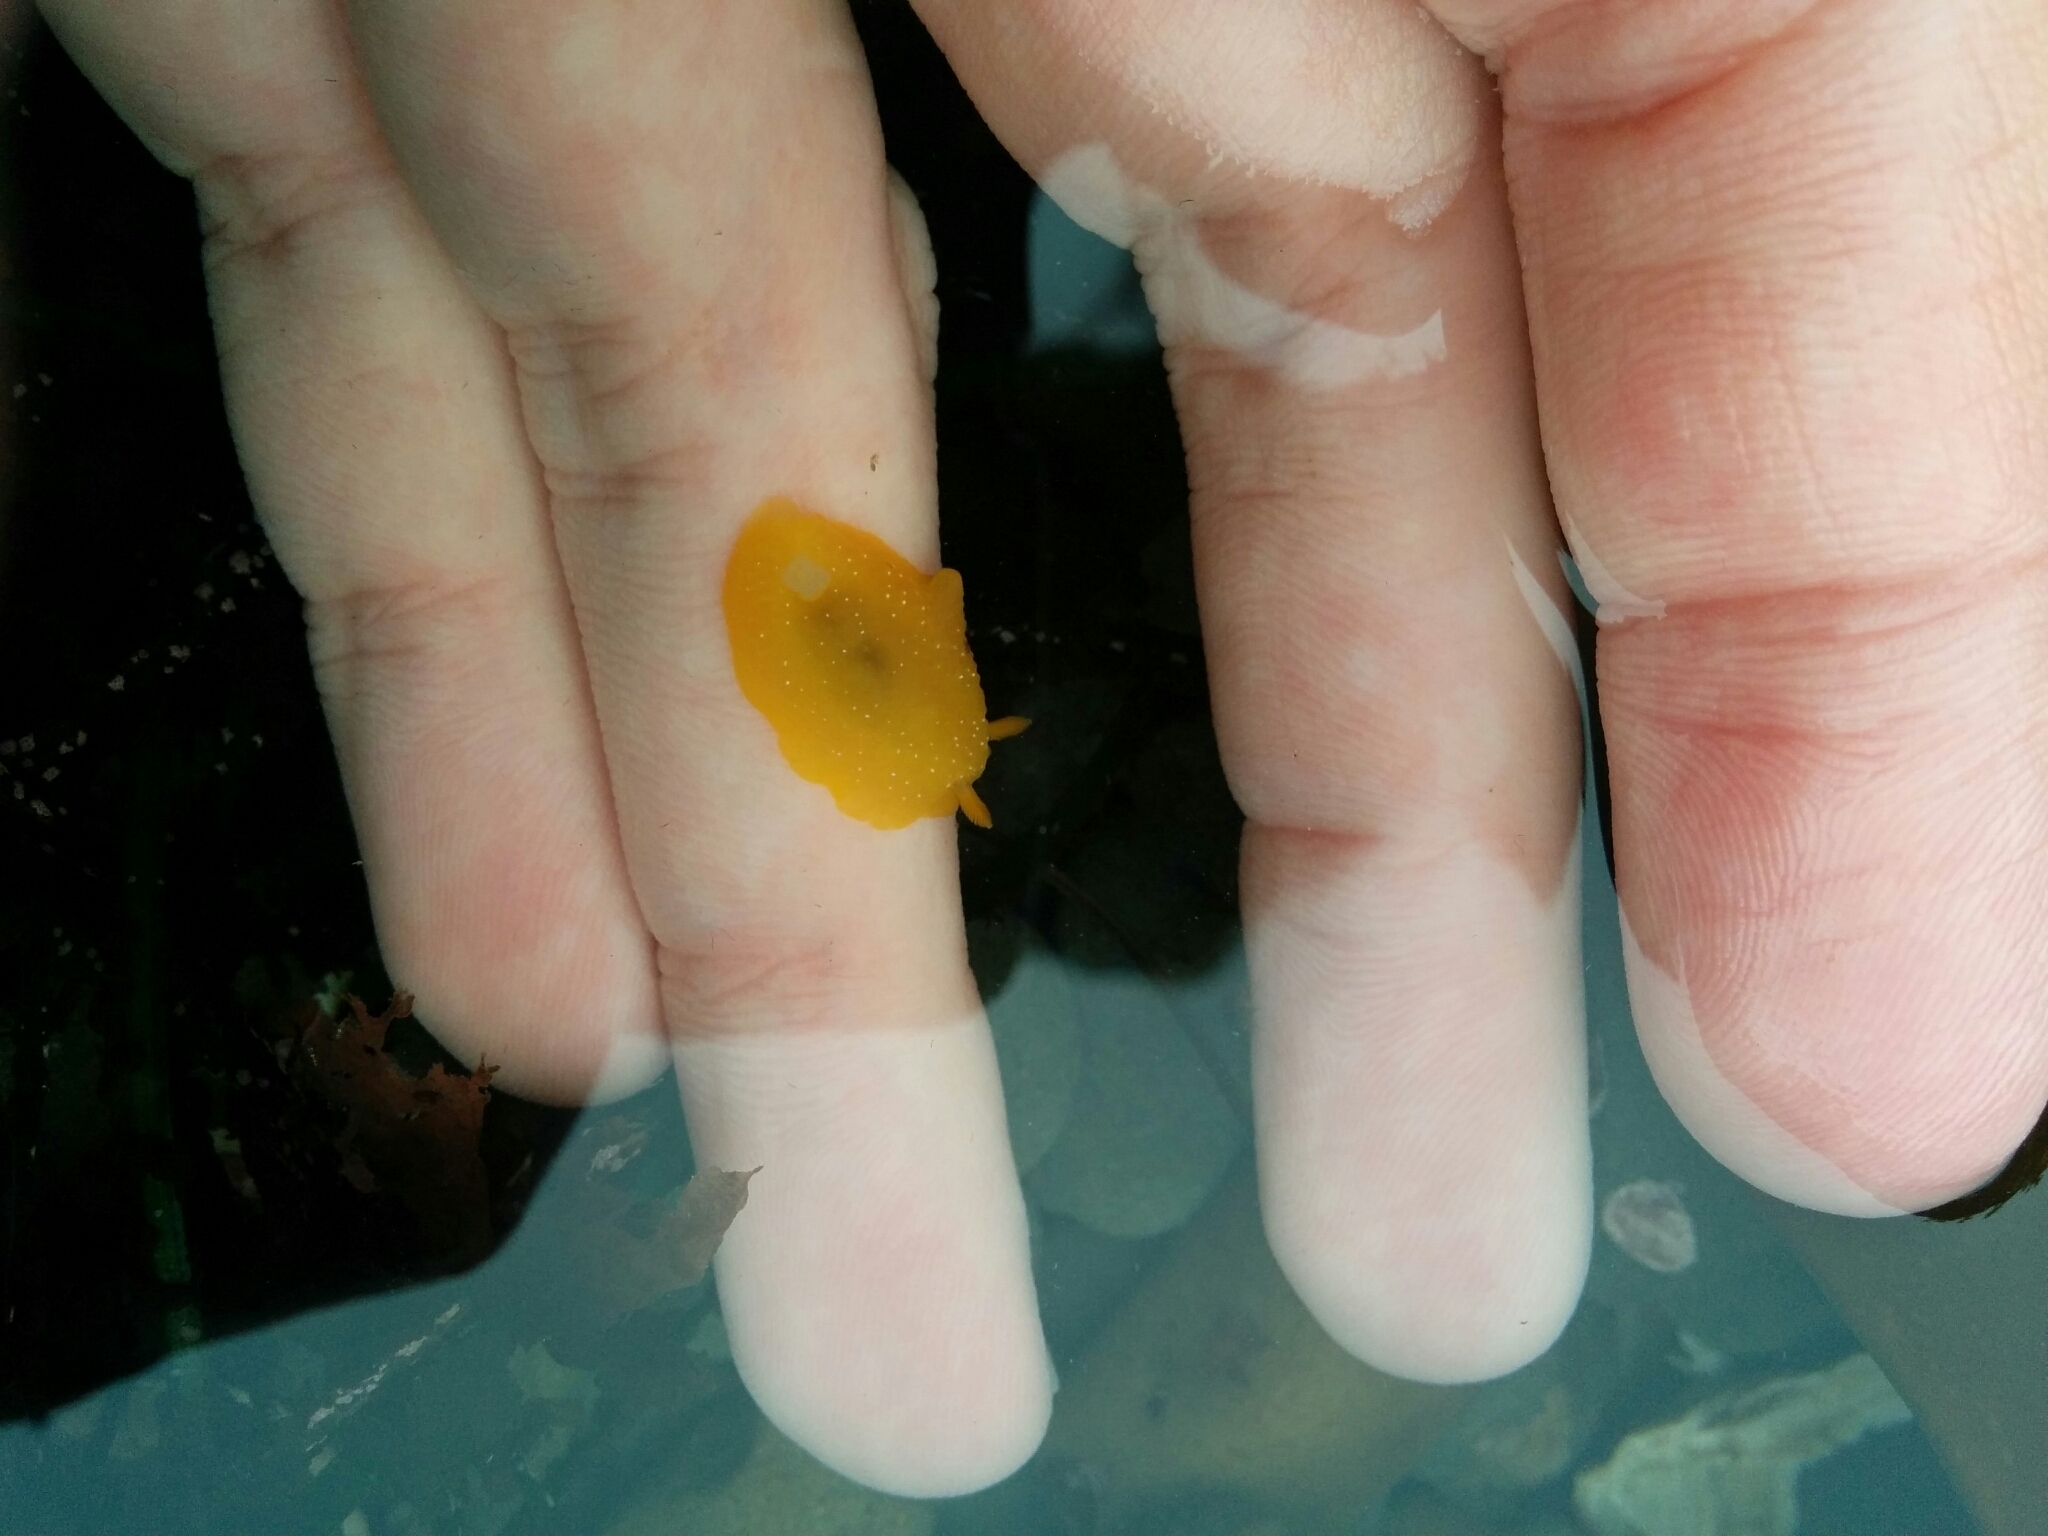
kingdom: Animalia
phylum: Mollusca
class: Gastropoda
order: Nudibranchia
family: Dendrodorididae
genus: Doriopsilla
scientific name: Doriopsilla fulva
